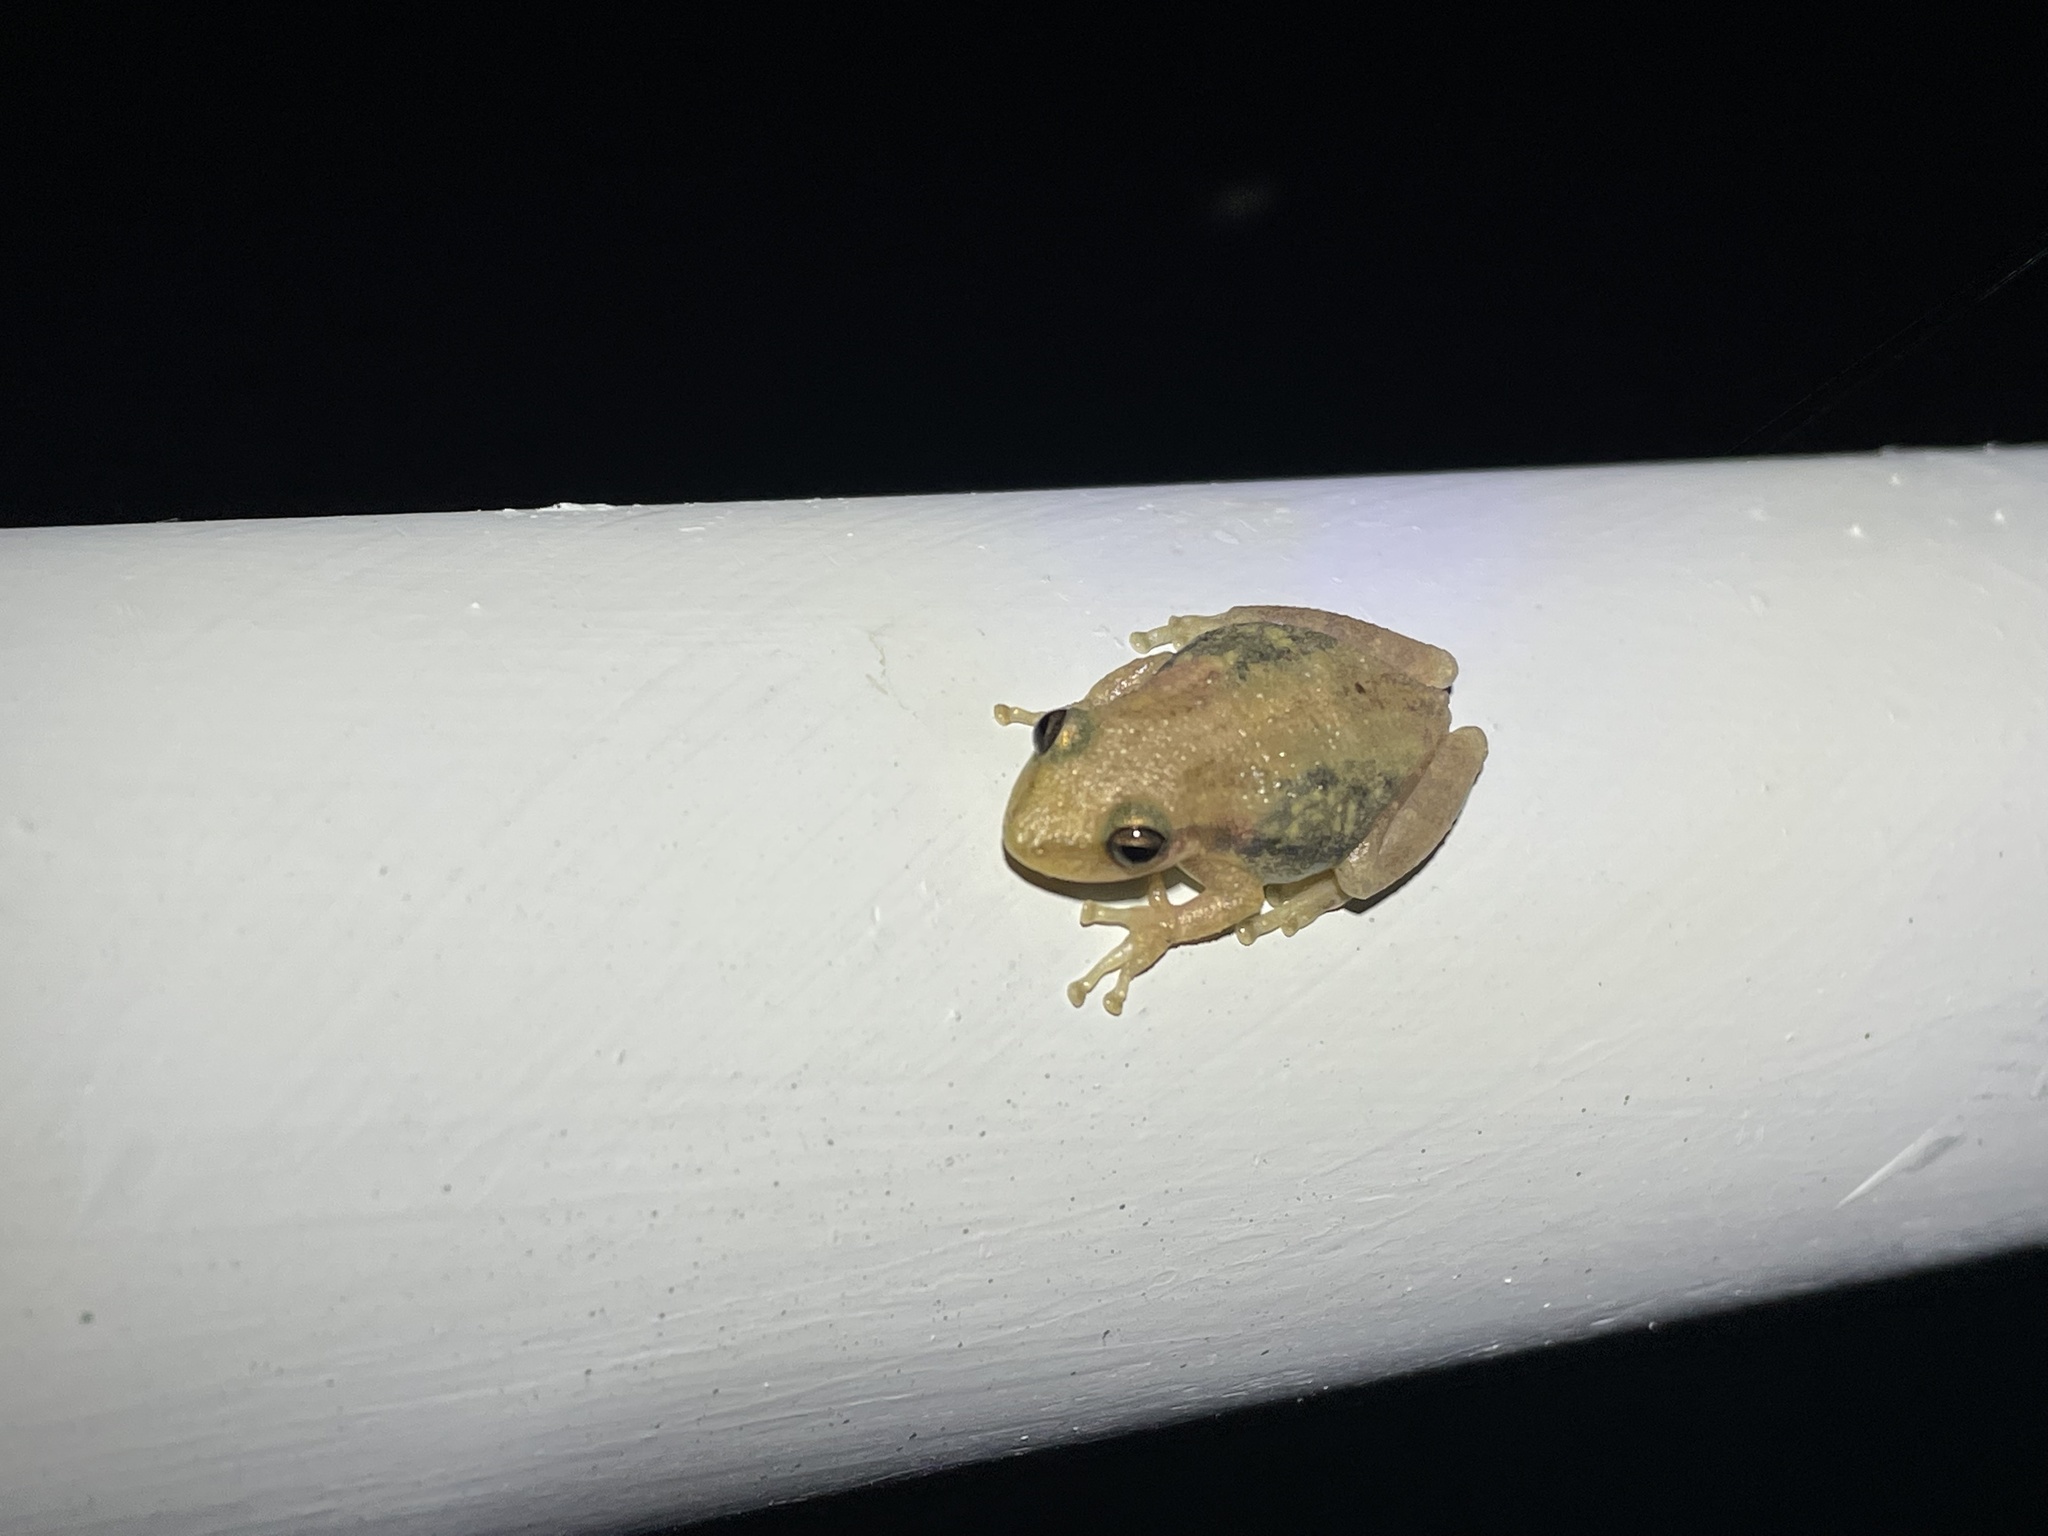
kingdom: Animalia
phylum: Chordata
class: Amphibia
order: Anura
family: Hylidae
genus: Scinax
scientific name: Scinax staufferi
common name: Stauffer's long-nosed treefrog
